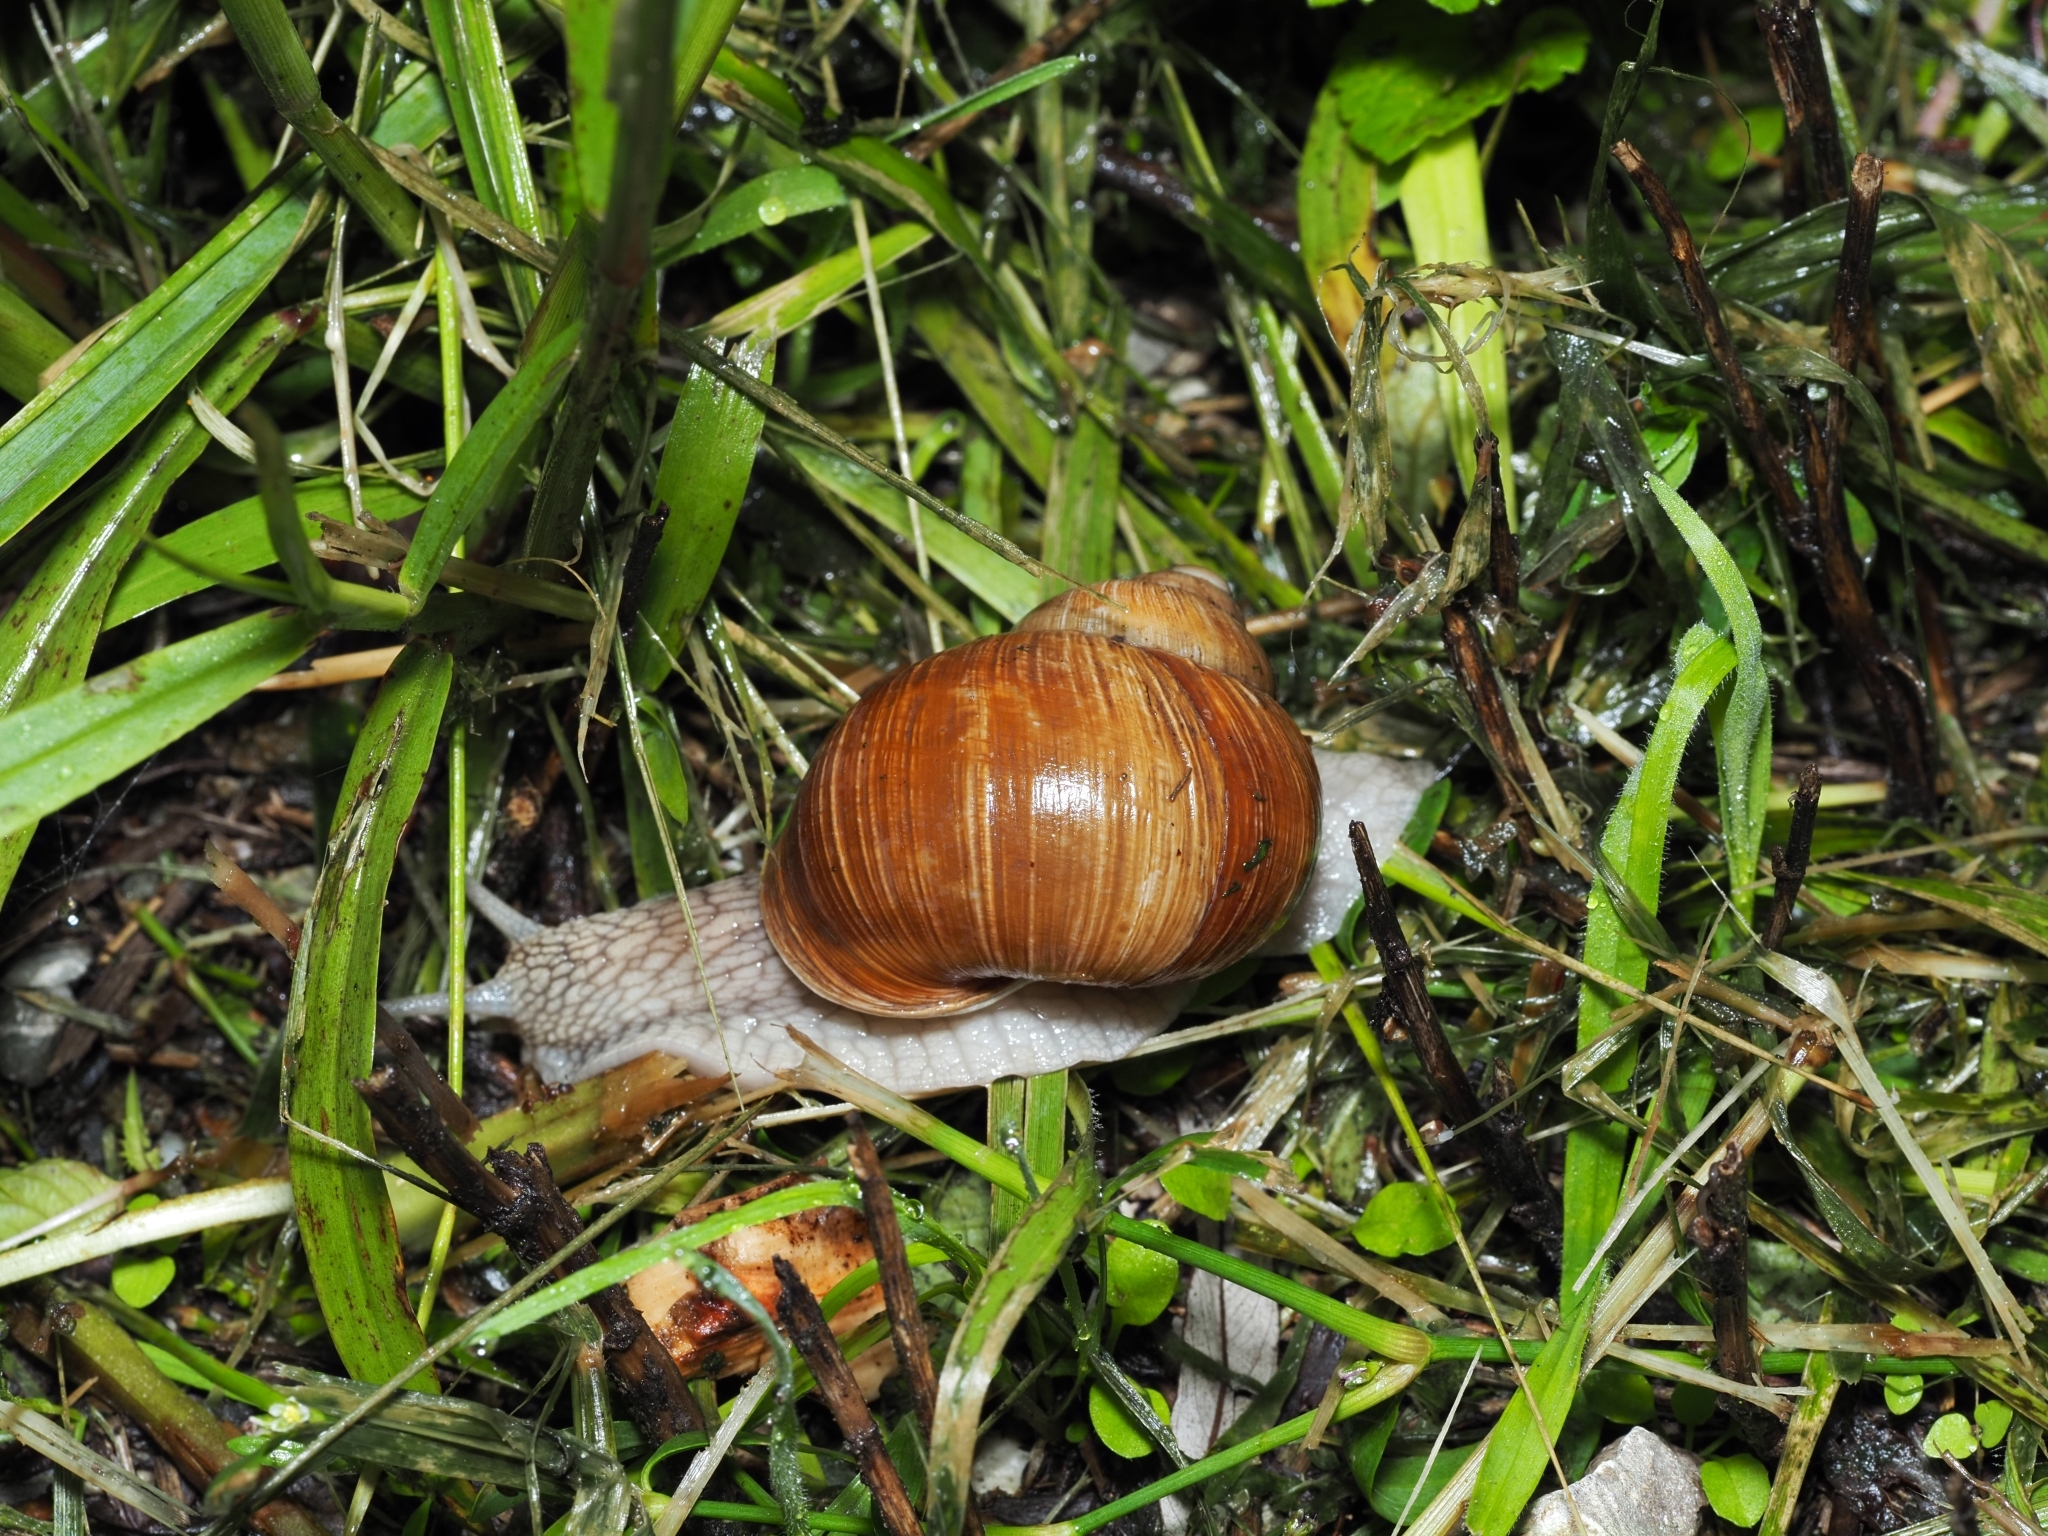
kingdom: Animalia
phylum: Mollusca
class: Gastropoda
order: Stylommatophora
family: Helicidae
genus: Helix
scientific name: Helix pomatia
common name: Roman snail
